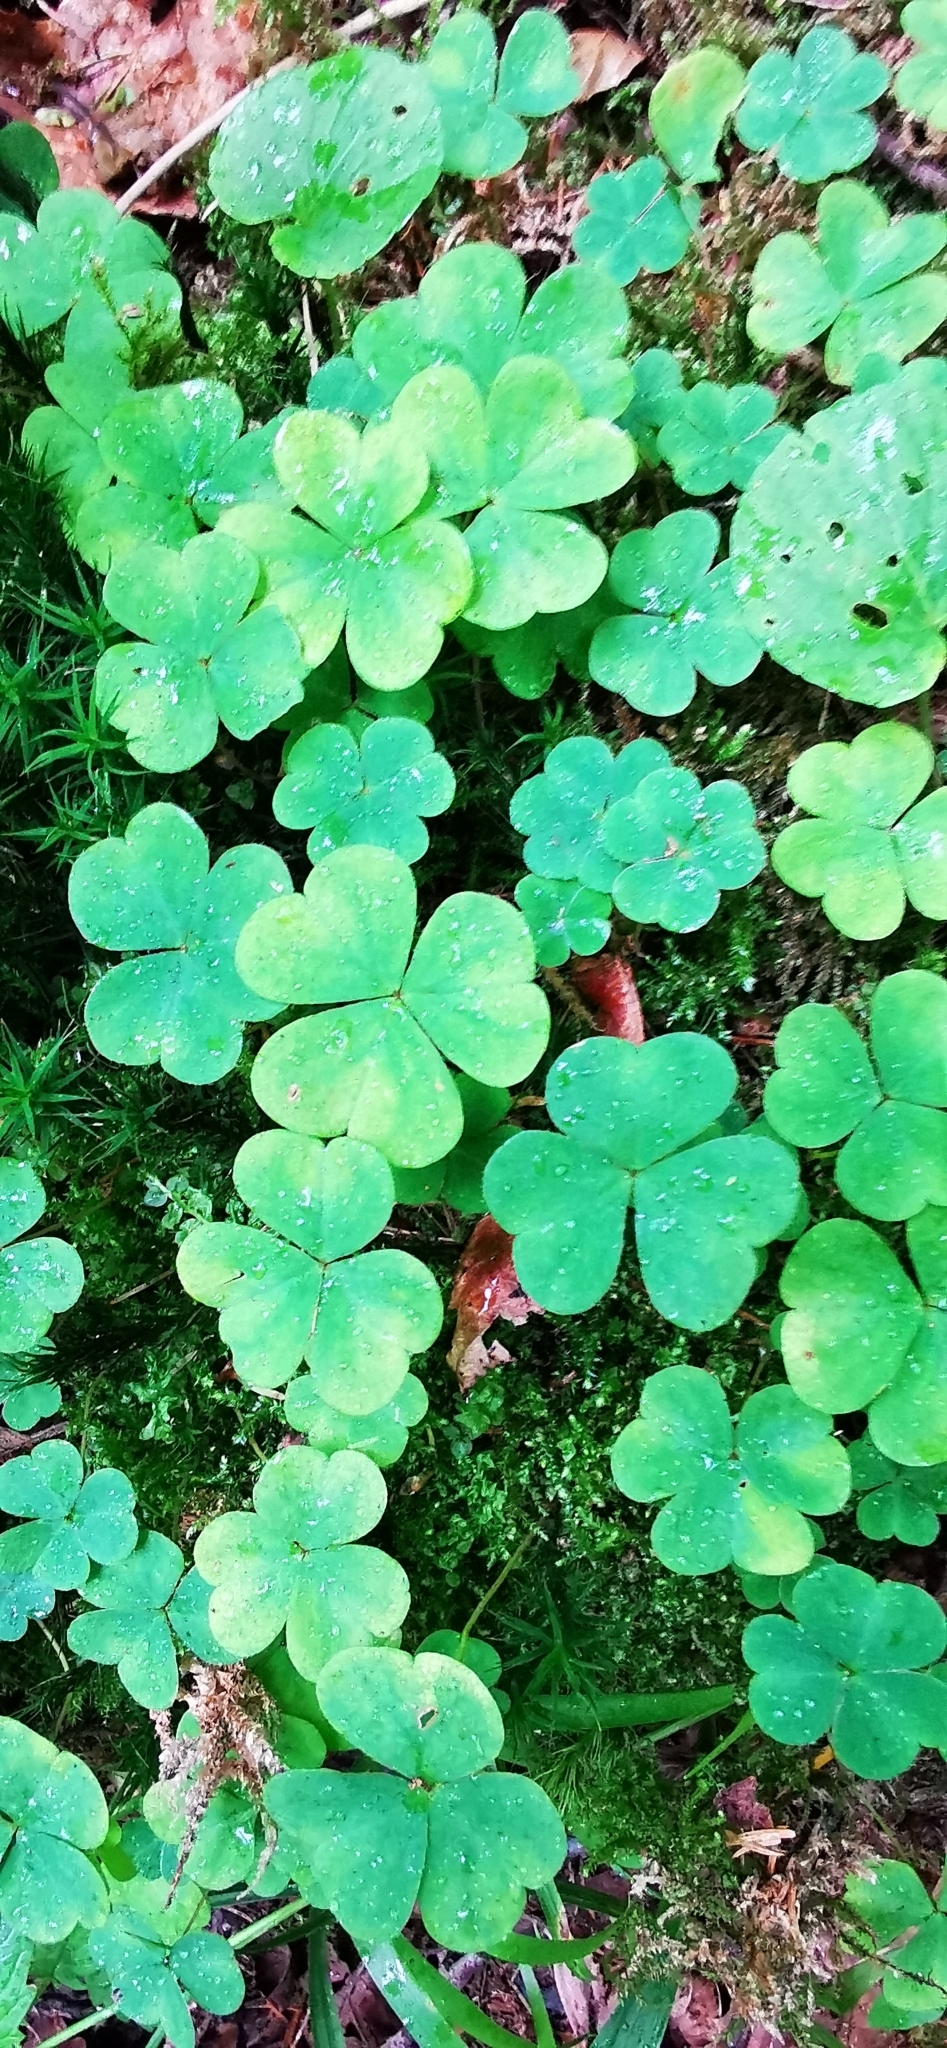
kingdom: Plantae
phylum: Tracheophyta
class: Magnoliopsida
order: Oxalidales
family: Oxalidaceae
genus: Oxalis
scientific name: Oxalis acetosella
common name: Wood-sorrel
